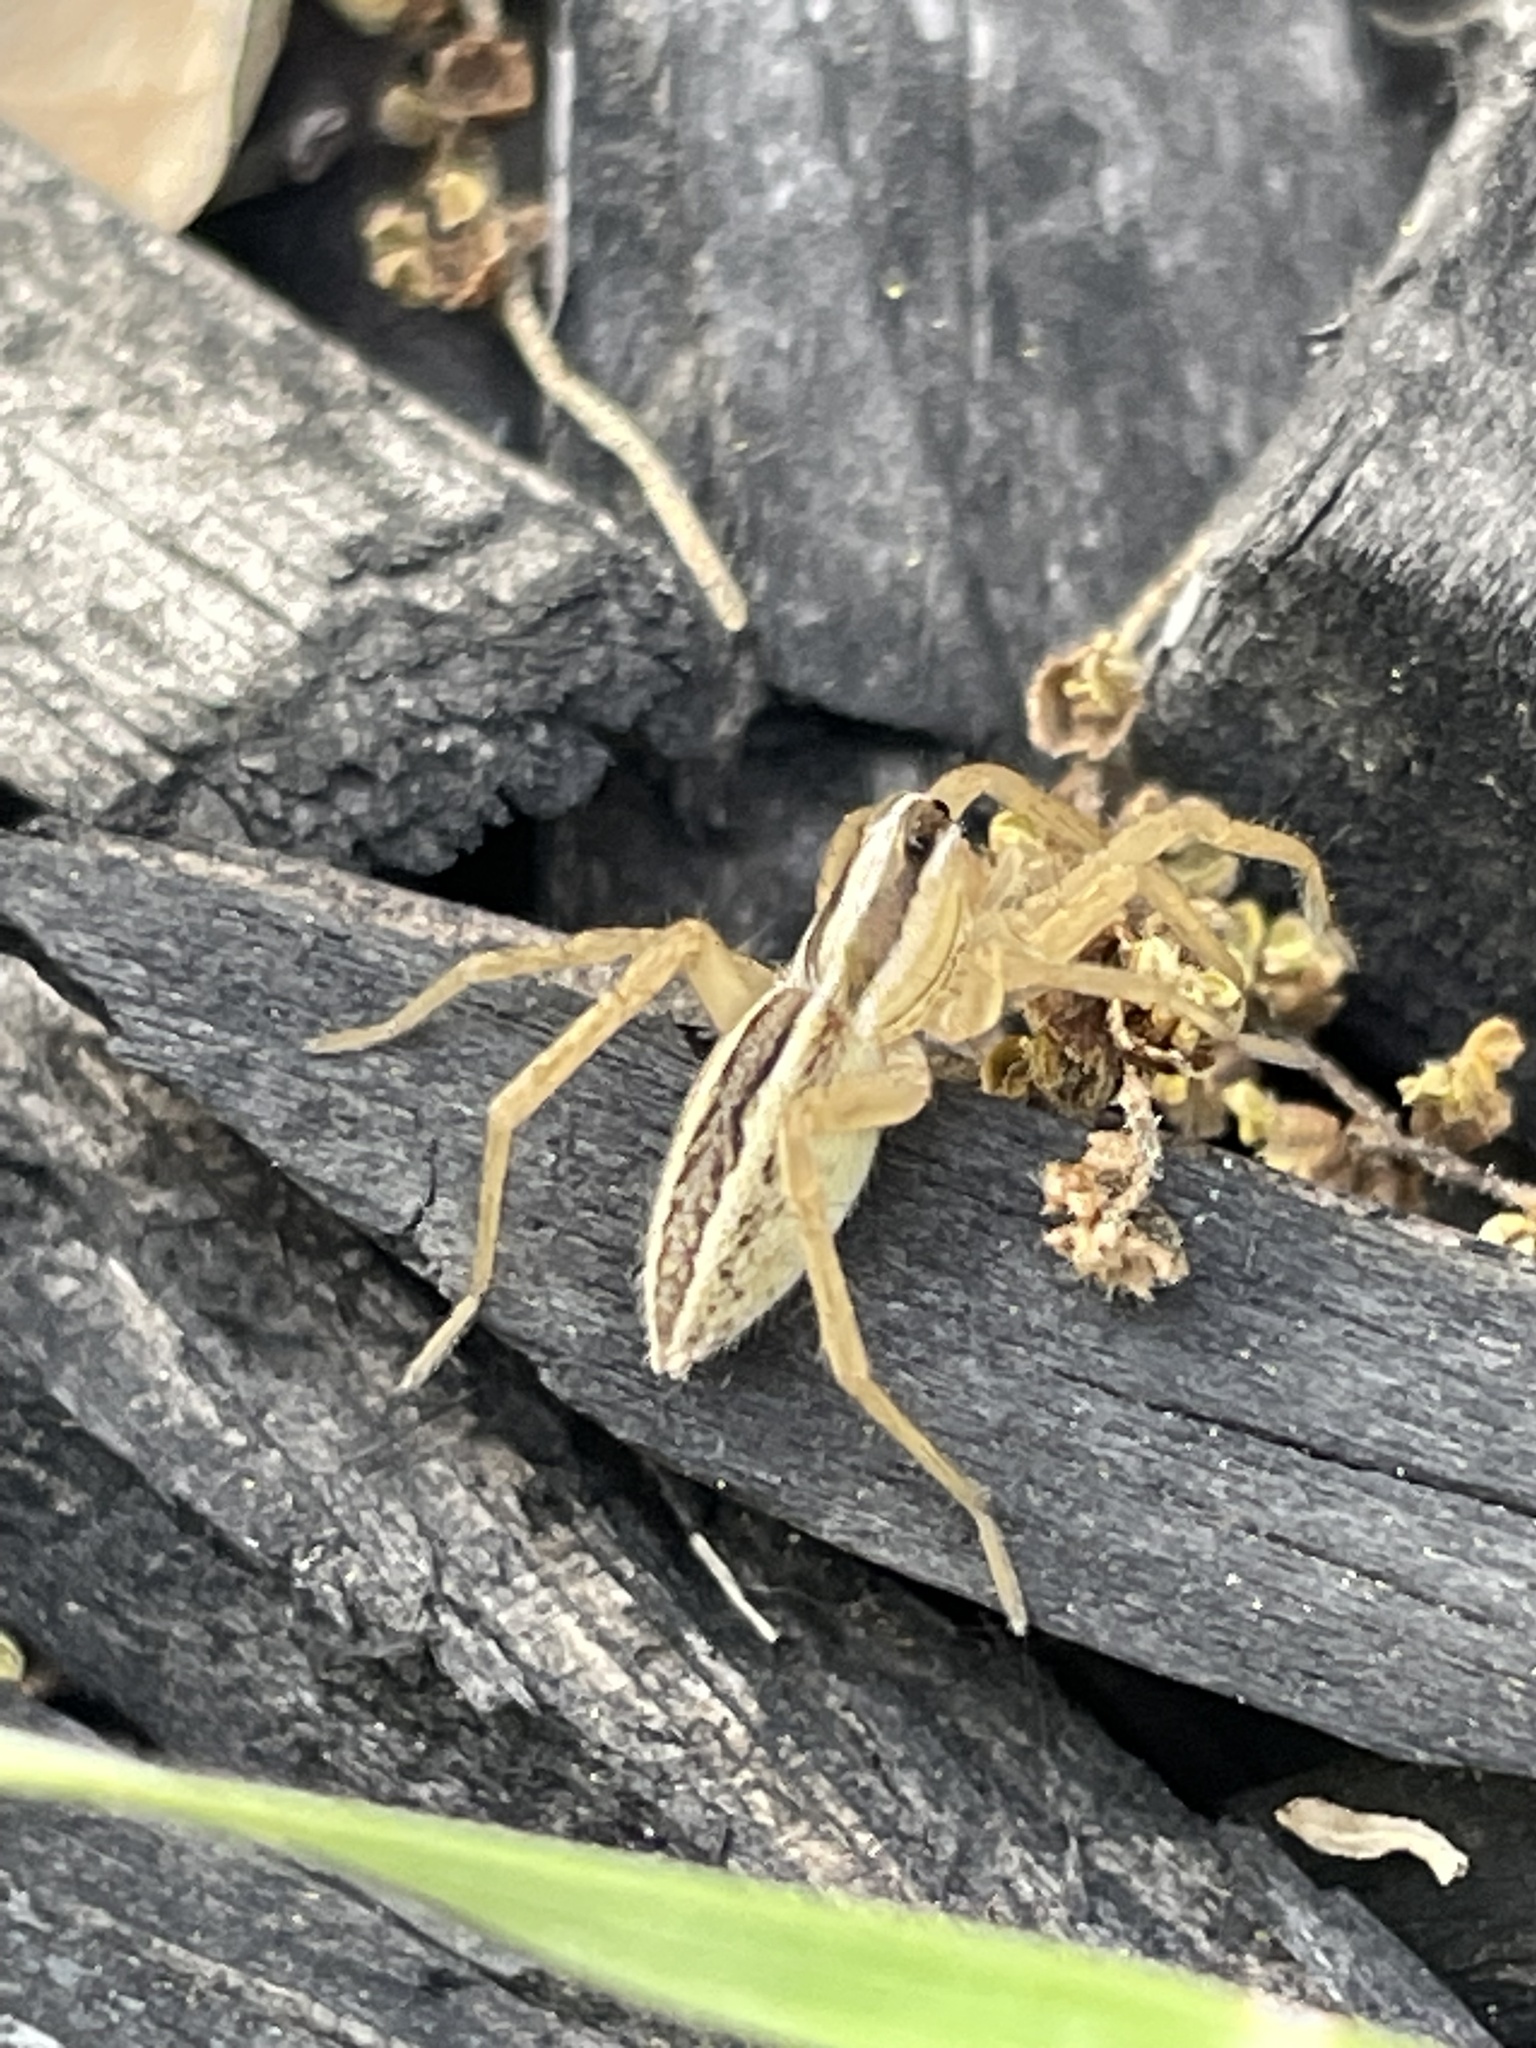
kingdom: Animalia
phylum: Arthropoda
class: Arachnida
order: Araneae
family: Lycosidae
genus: Rabidosa
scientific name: Rabidosa rabida
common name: Rabid wolf spider
